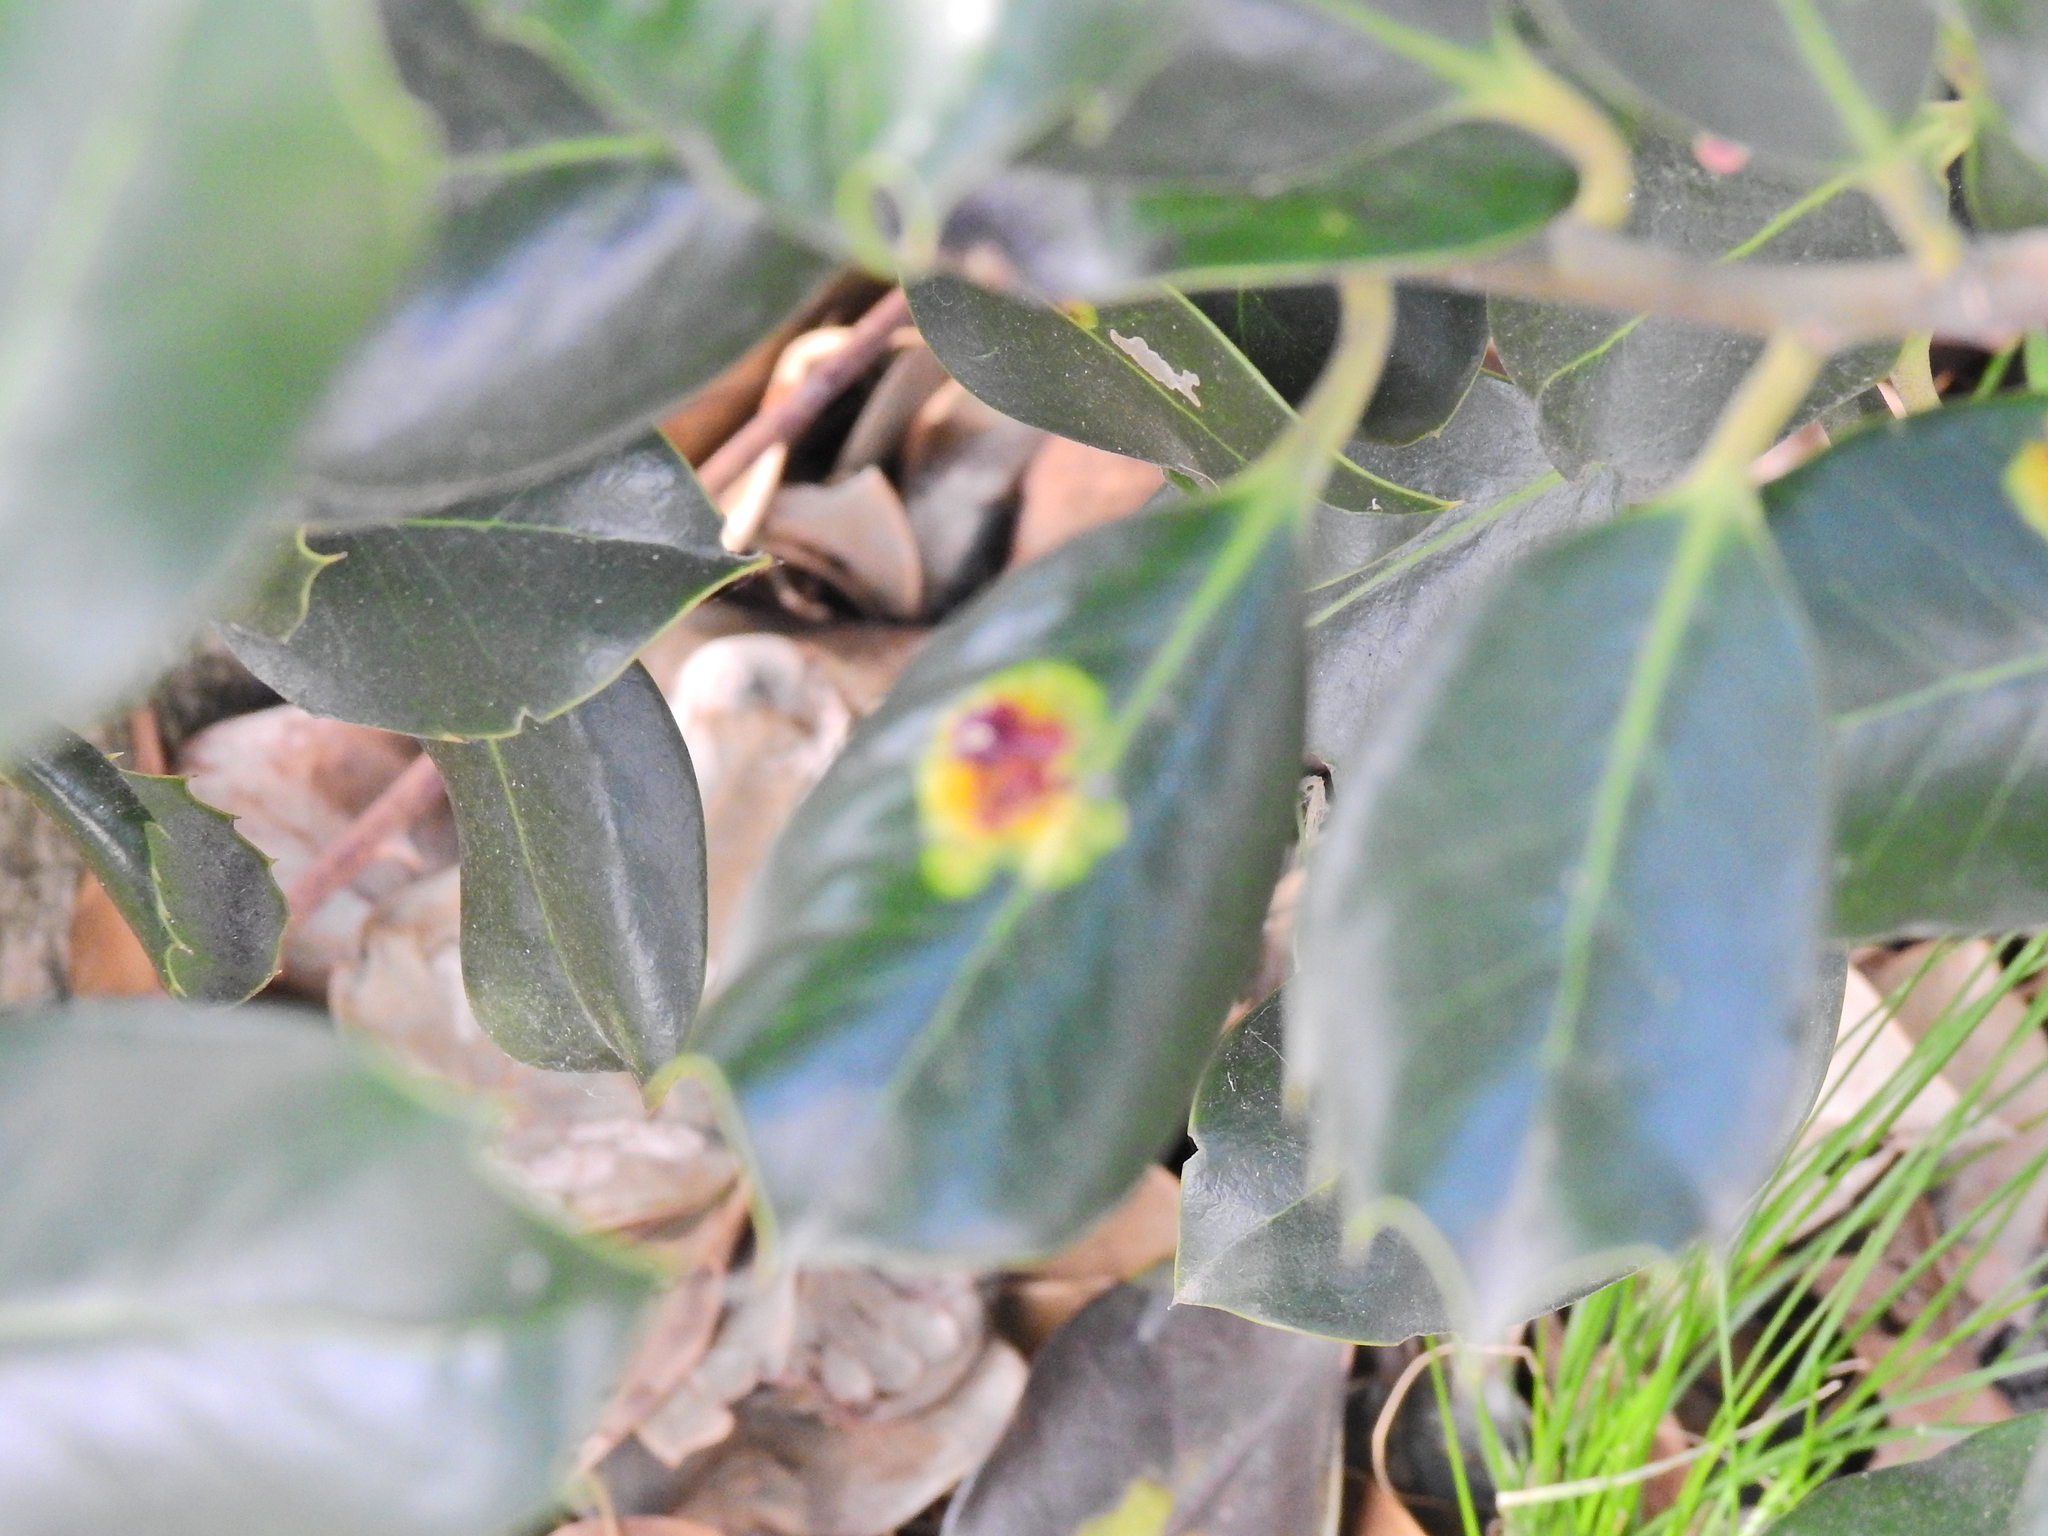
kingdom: Animalia
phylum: Arthropoda
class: Insecta
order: Diptera
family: Agromyzidae
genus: Phytomyza
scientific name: Phytomyza ilicis
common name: Holly leafminer
